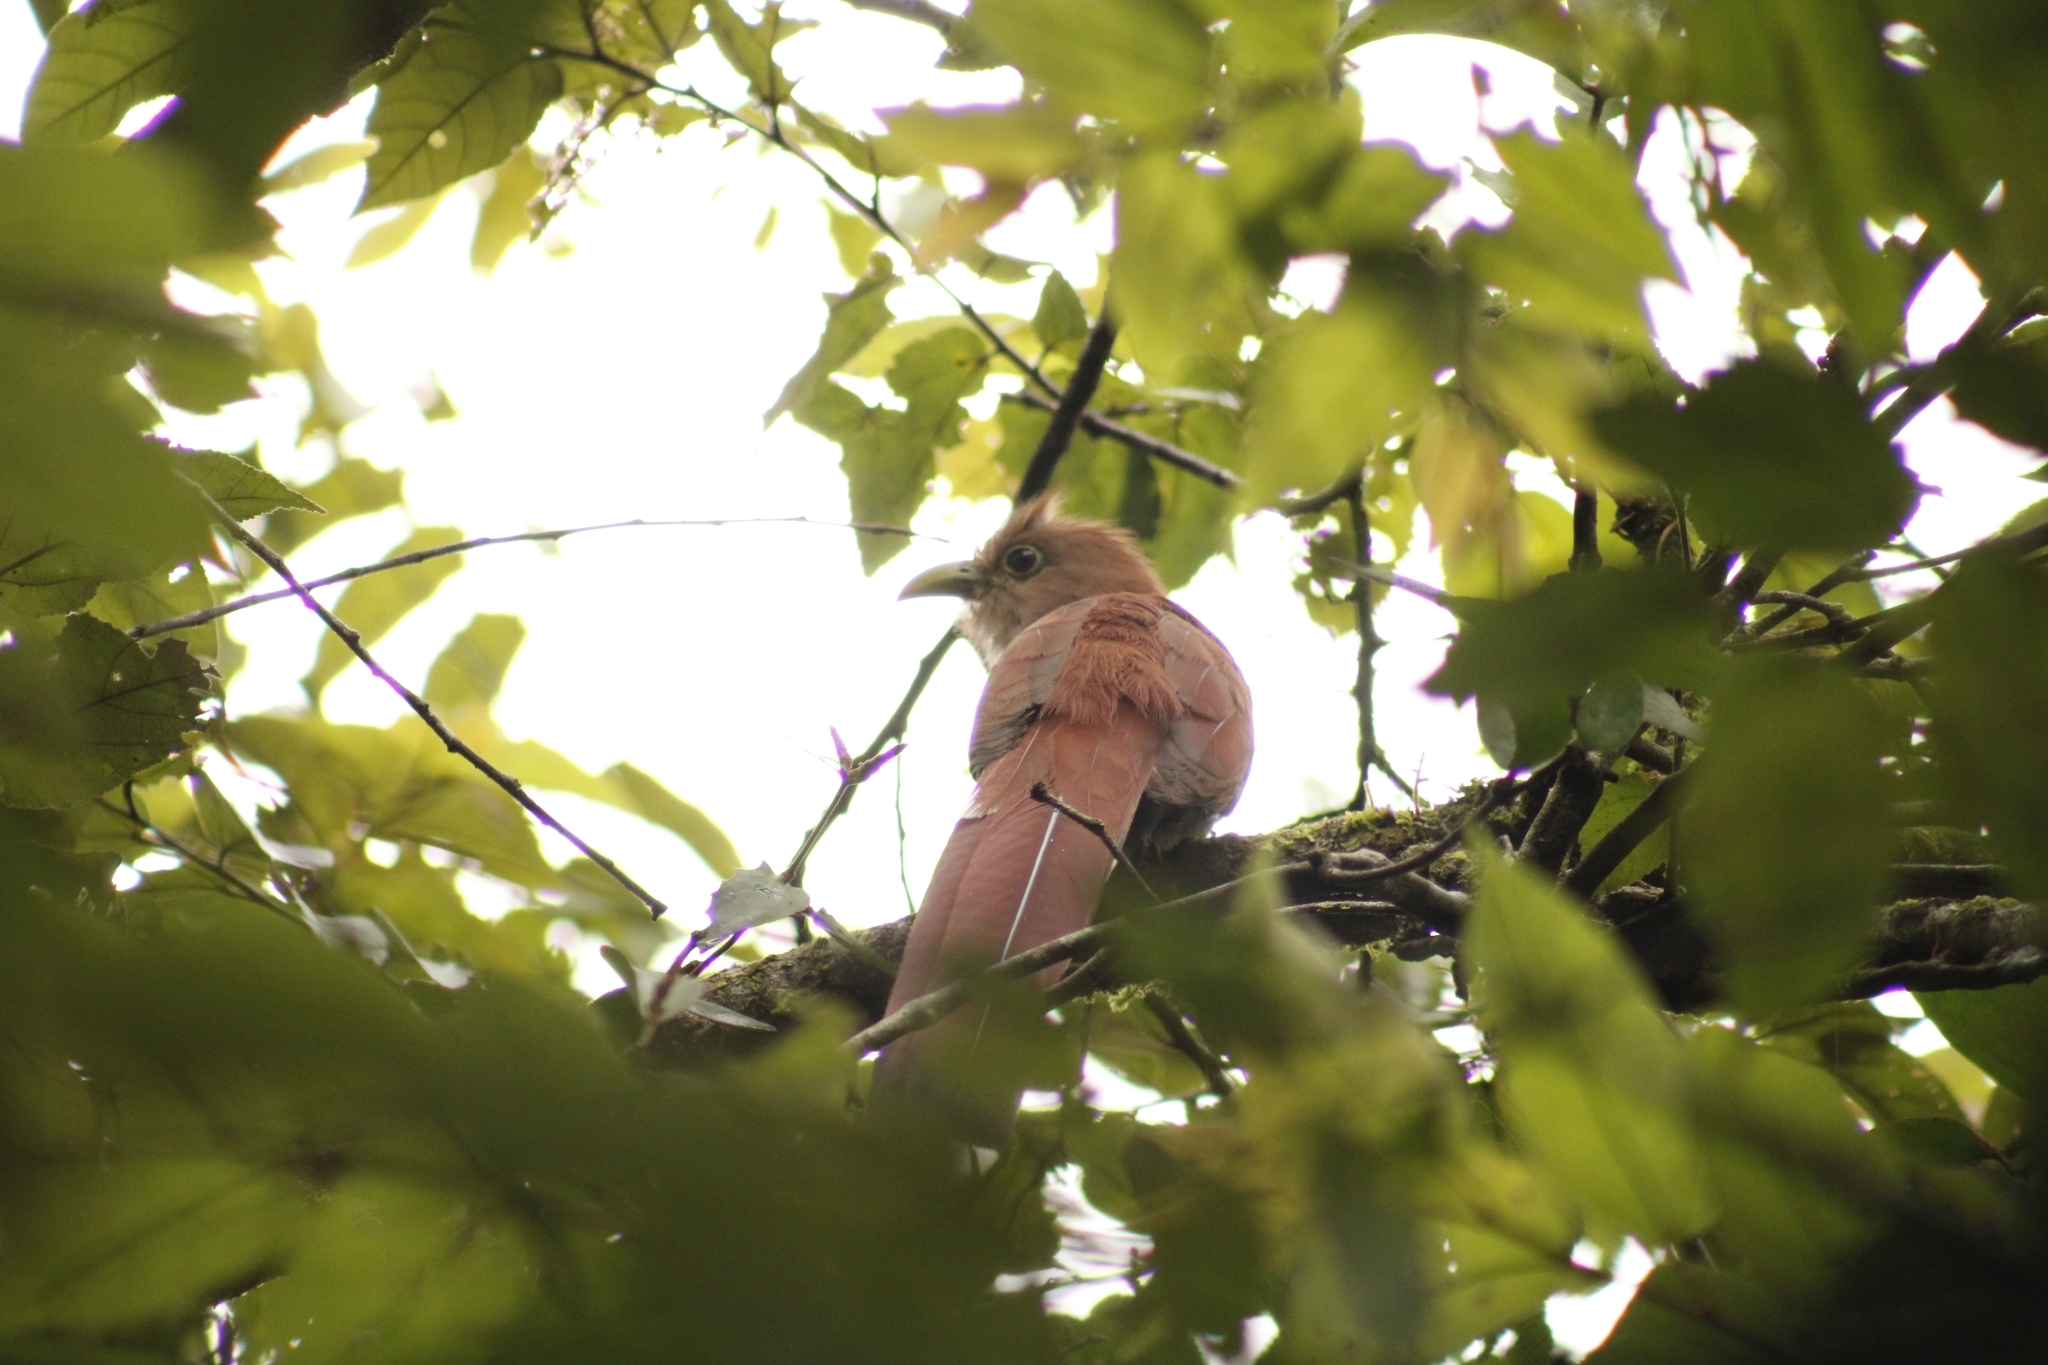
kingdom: Animalia
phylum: Chordata
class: Aves
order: Cuculiformes
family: Cuculidae
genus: Piaya
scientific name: Piaya cayana
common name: Squirrel cuckoo
